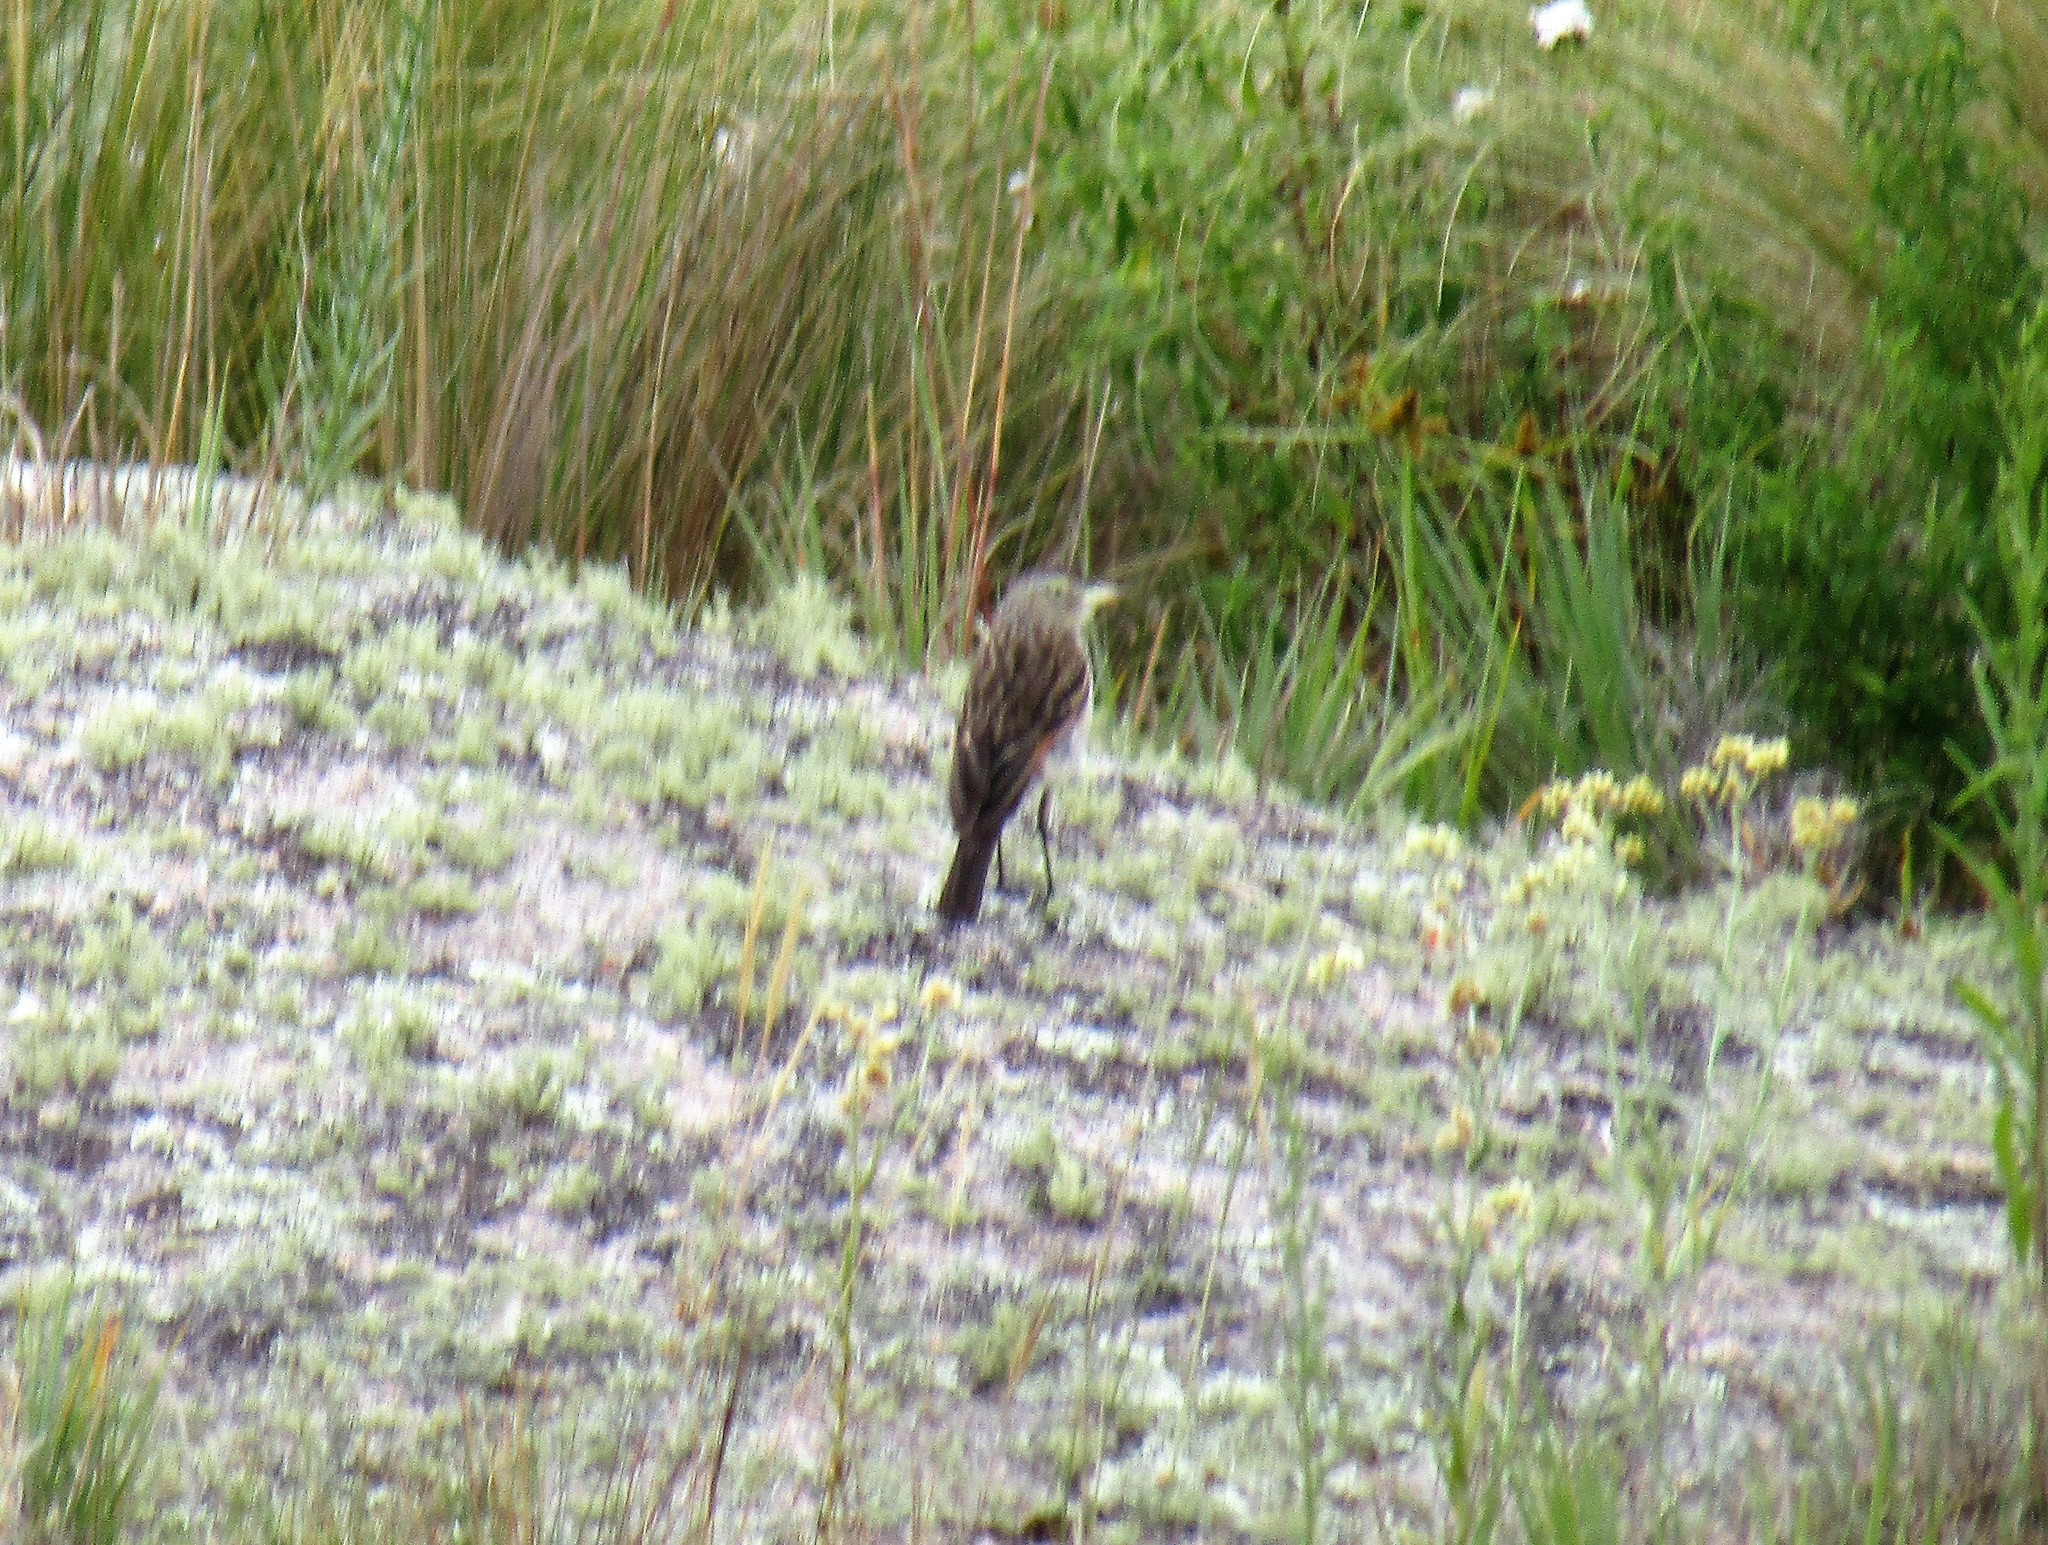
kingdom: Animalia
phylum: Chordata
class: Aves
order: Passeriformes
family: Tyrannidae
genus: Hymenops
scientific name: Hymenops perspicillatus
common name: Spectacled tyrant
